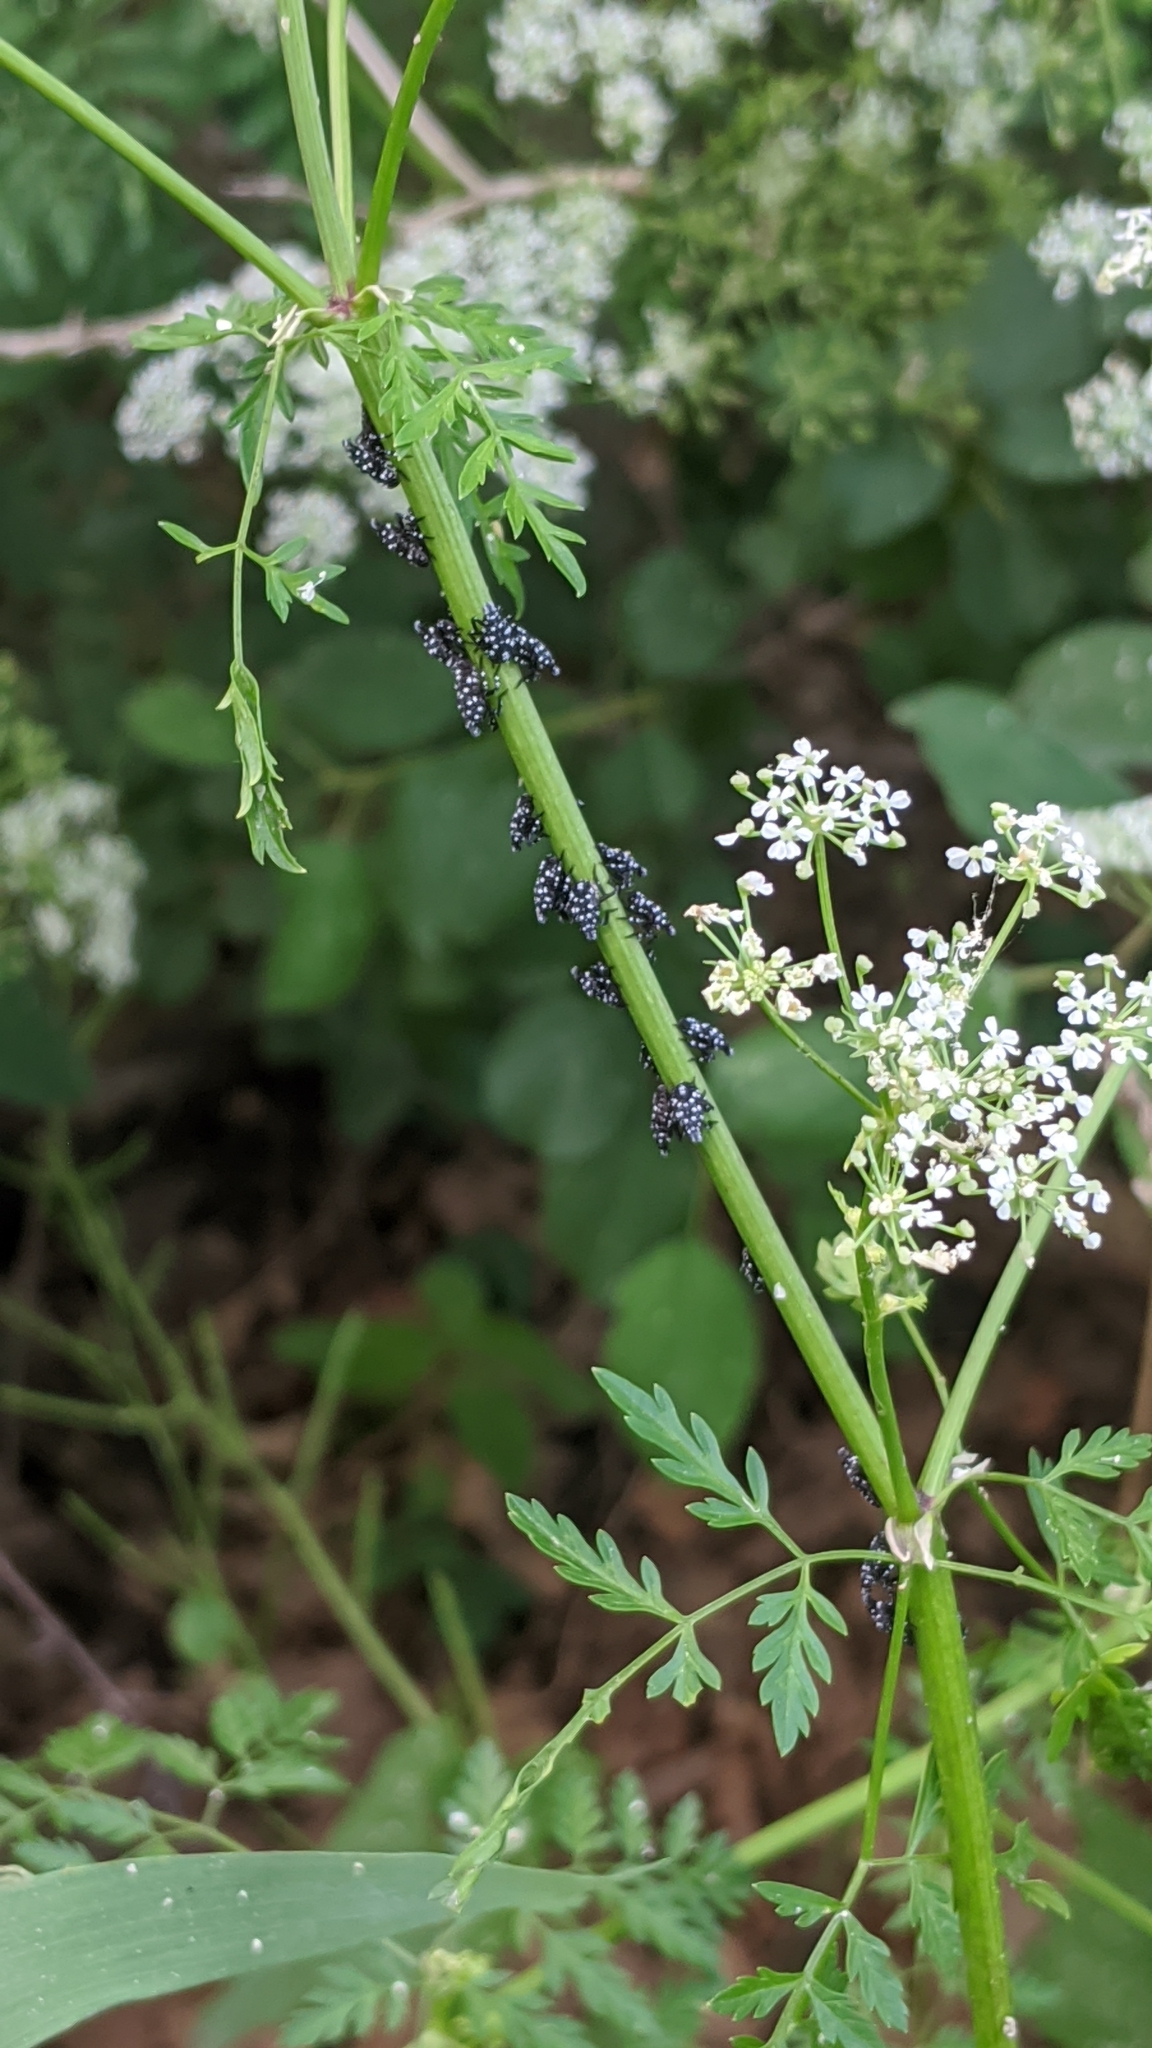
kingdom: Animalia
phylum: Arthropoda
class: Insecta
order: Hemiptera
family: Fulgoridae
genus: Lycorma
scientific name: Lycorma delicatula
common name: Spotted lanternfly
